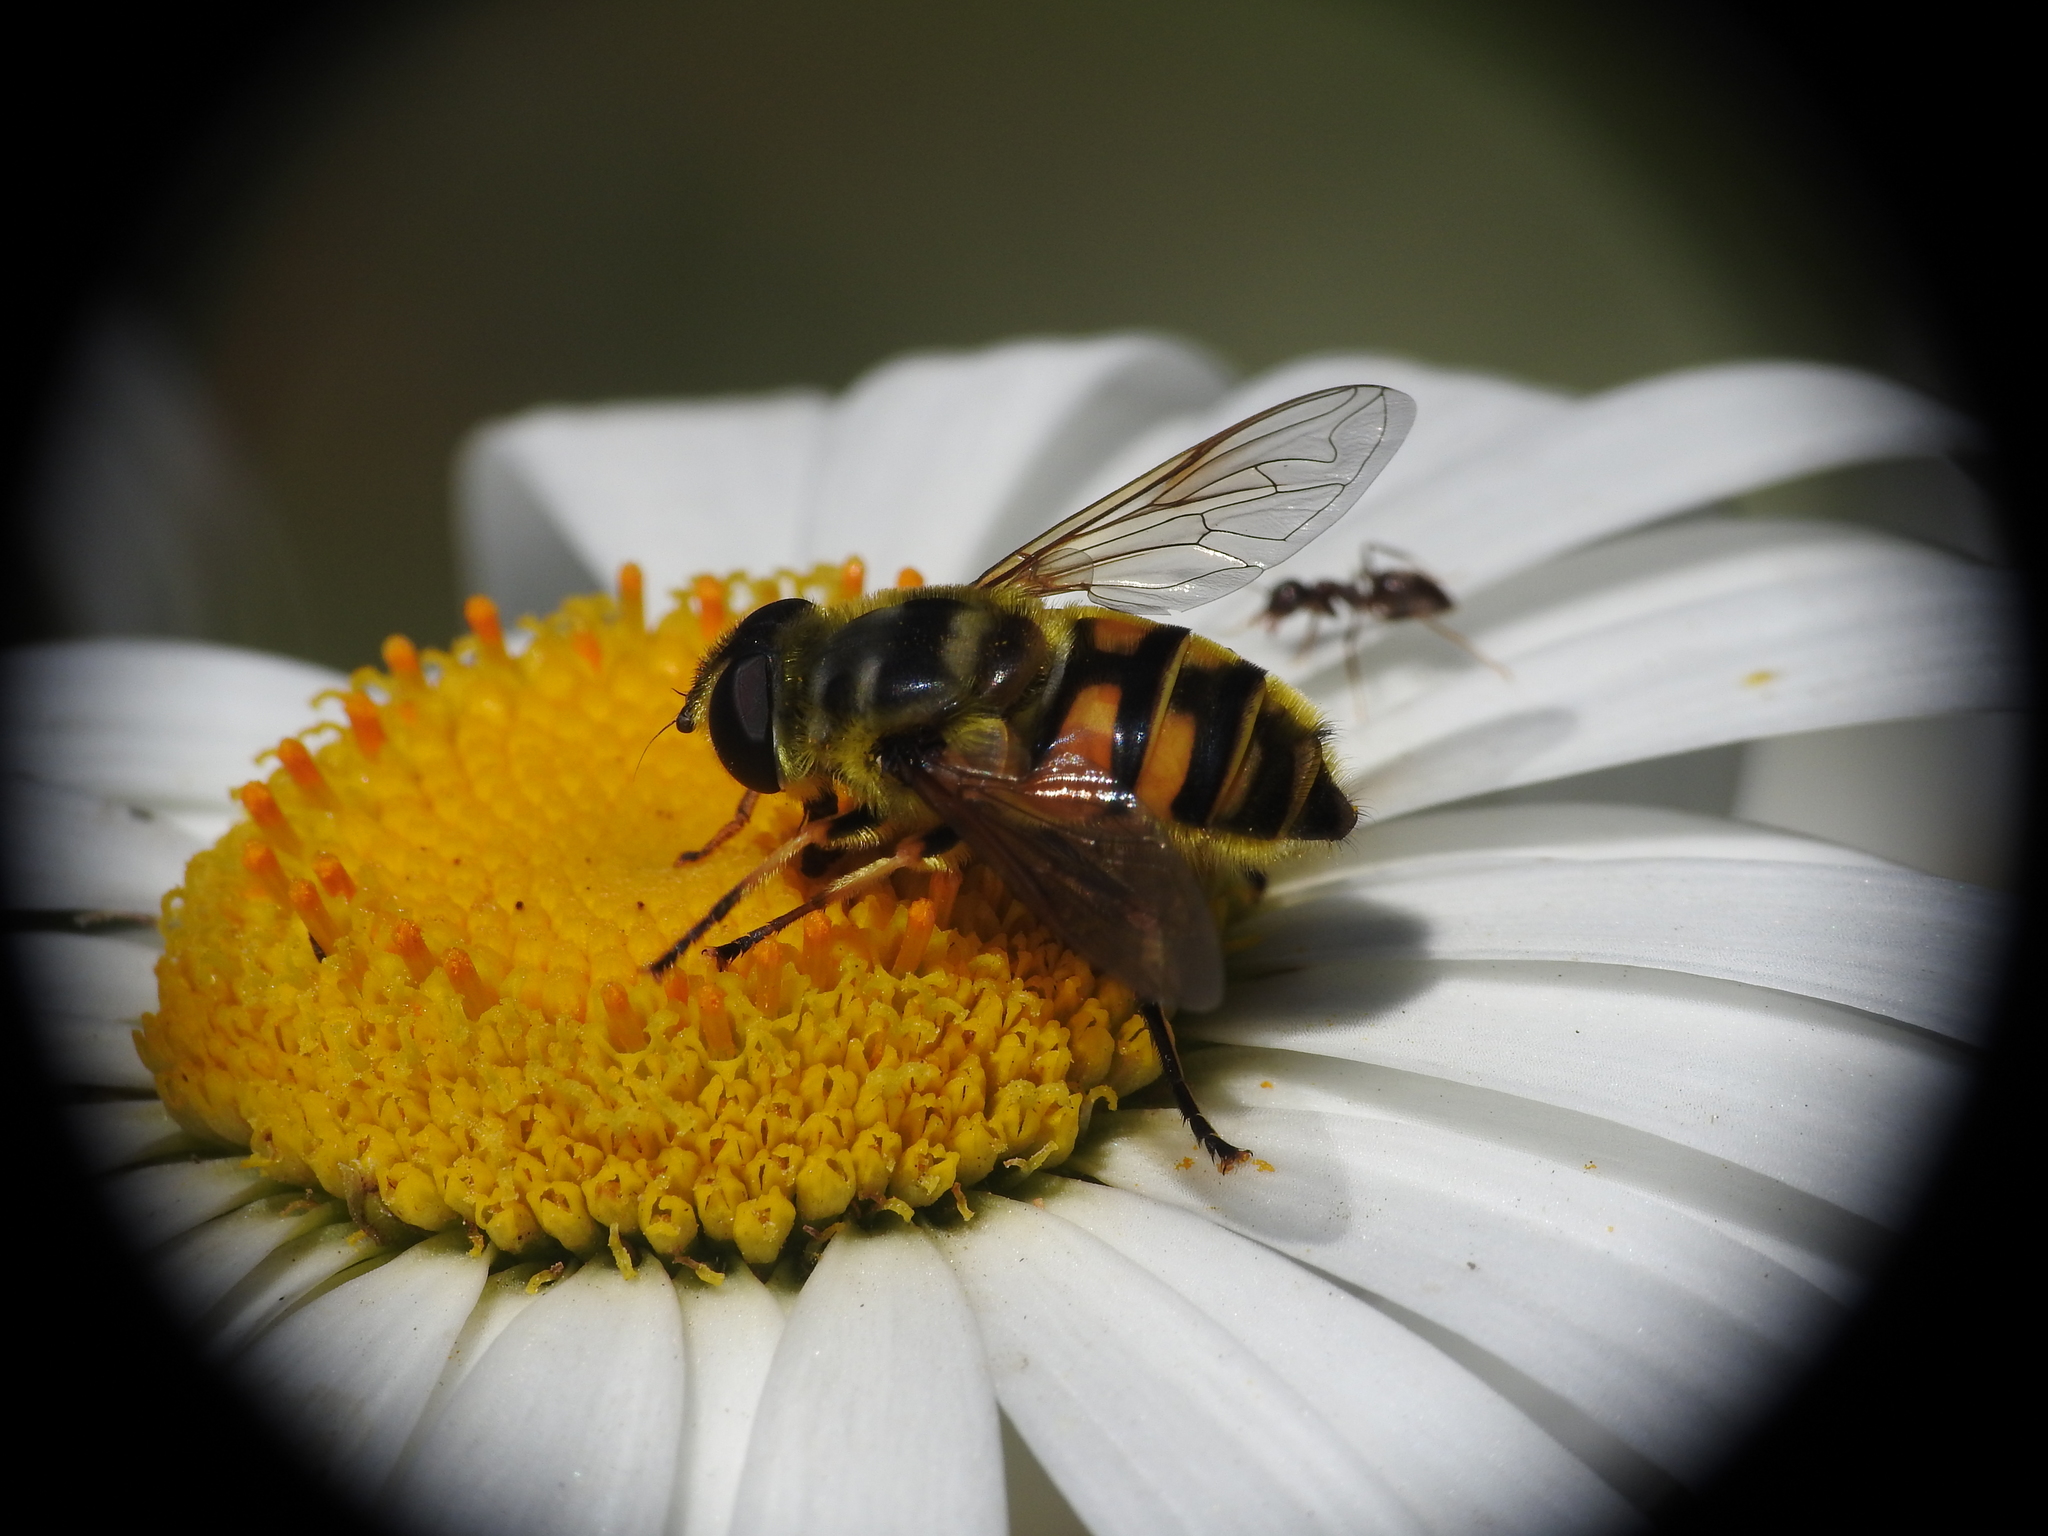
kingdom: Animalia
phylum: Arthropoda
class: Insecta
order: Diptera
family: Syrphidae
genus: Myathropa
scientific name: Myathropa florea
